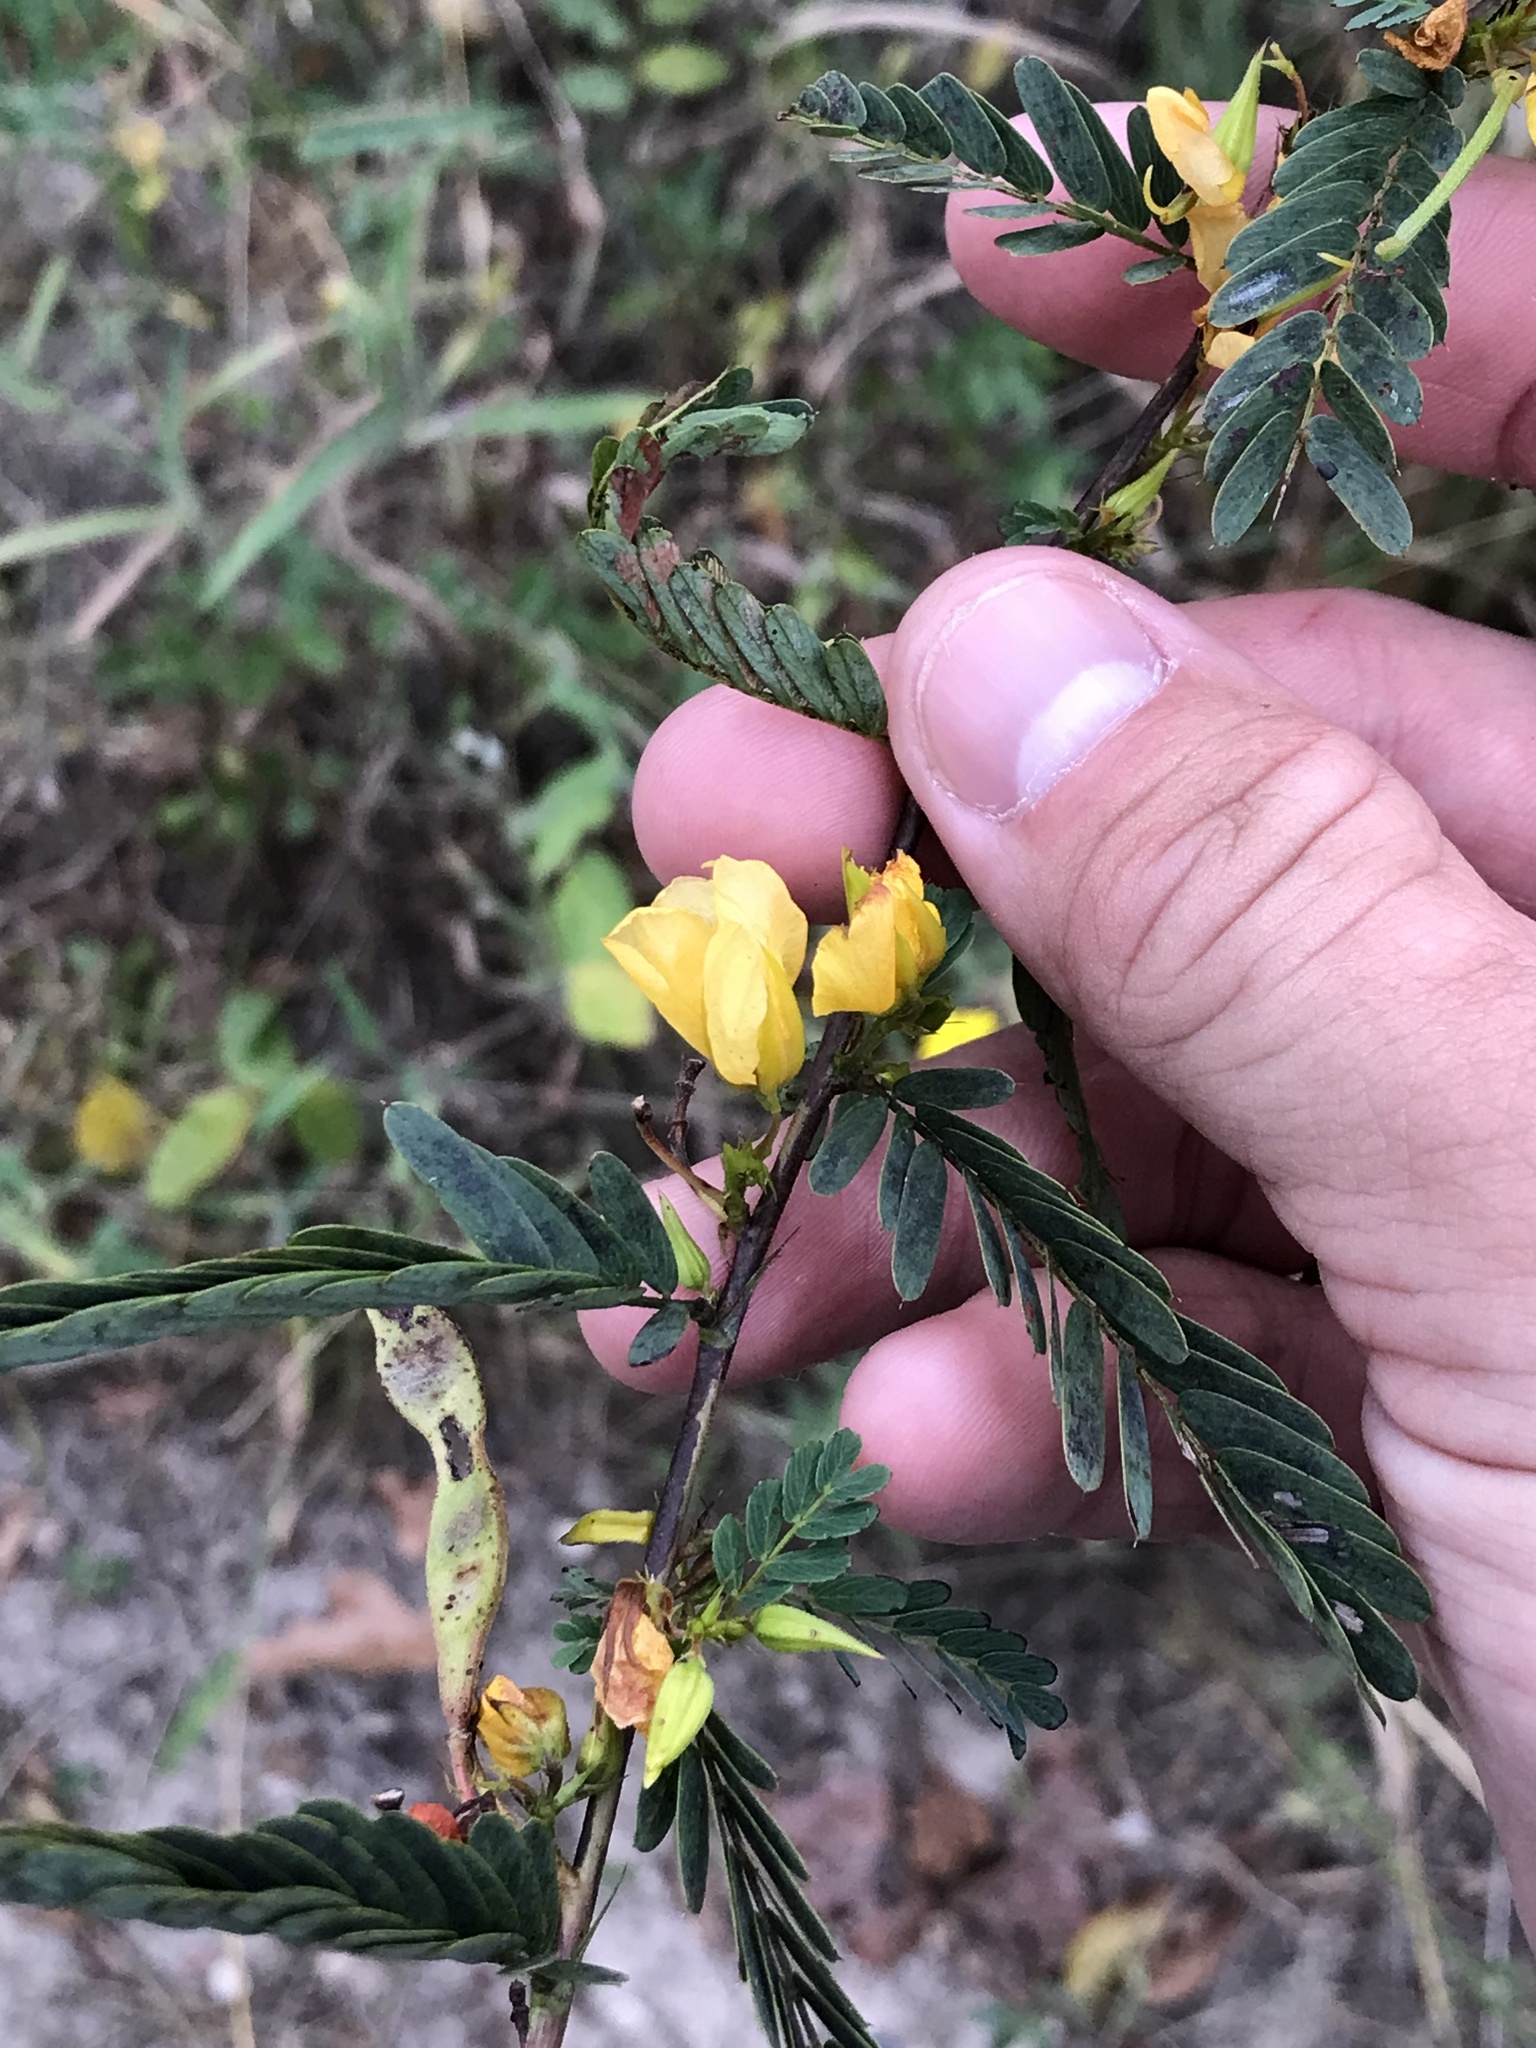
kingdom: Plantae
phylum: Tracheophyta
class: Magnoliopsida
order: Fabales
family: Fabaceae
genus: Chamaecrista
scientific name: Chamaecrista fasciculata
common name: Golden cassia
